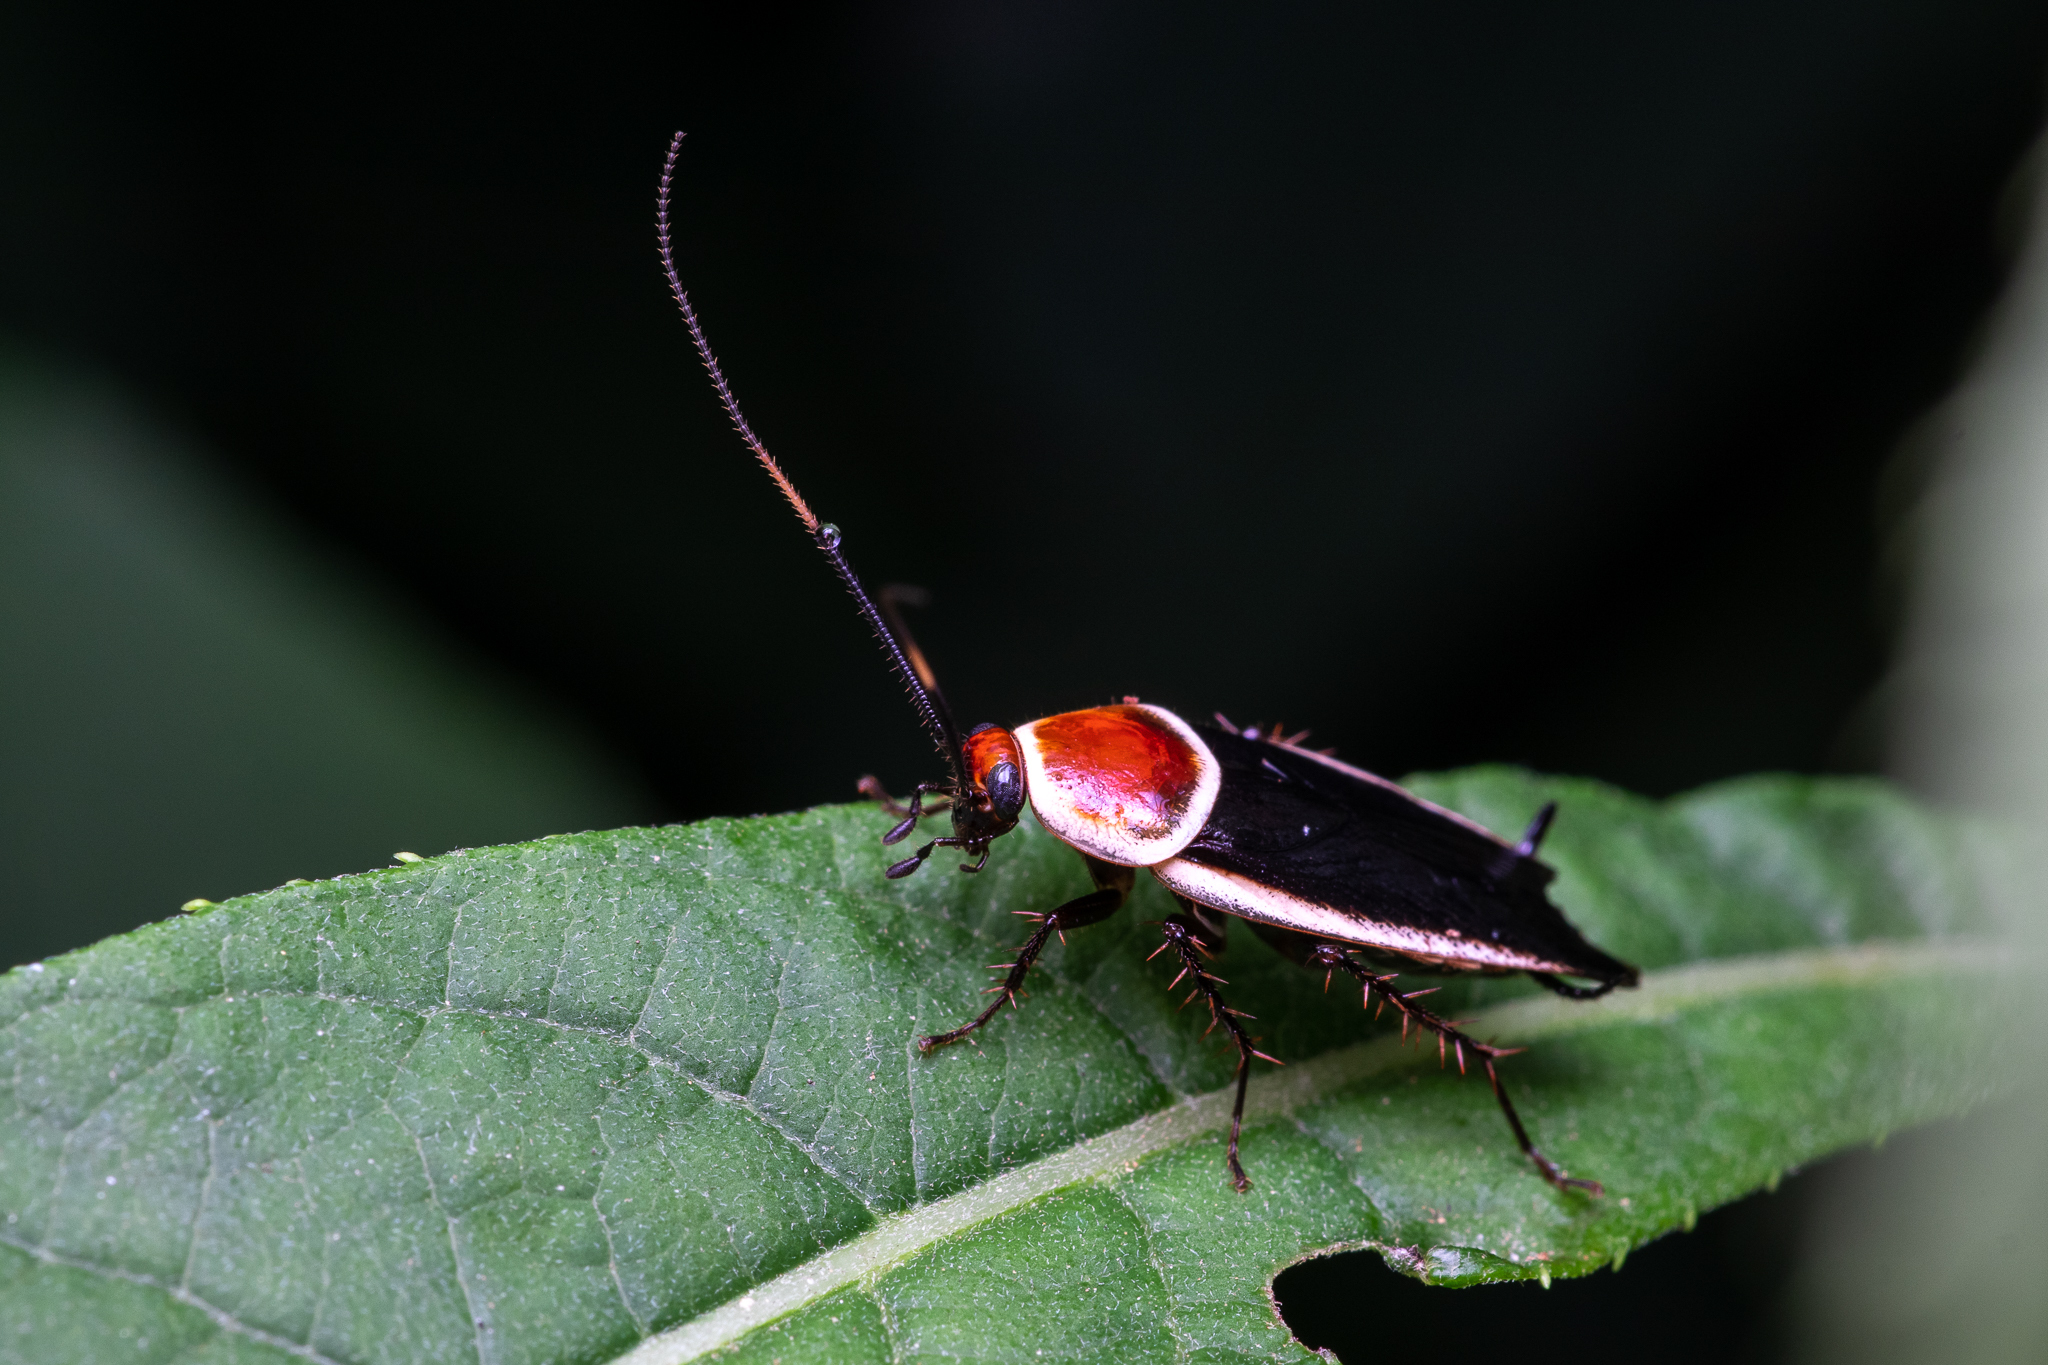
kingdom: Animalia
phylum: Arthropoda
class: Insecta
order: Blattodea
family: Ectobiidae
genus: Pseudomops
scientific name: Pseudomops septentrionalis
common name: Pale-bordered field cockroach
